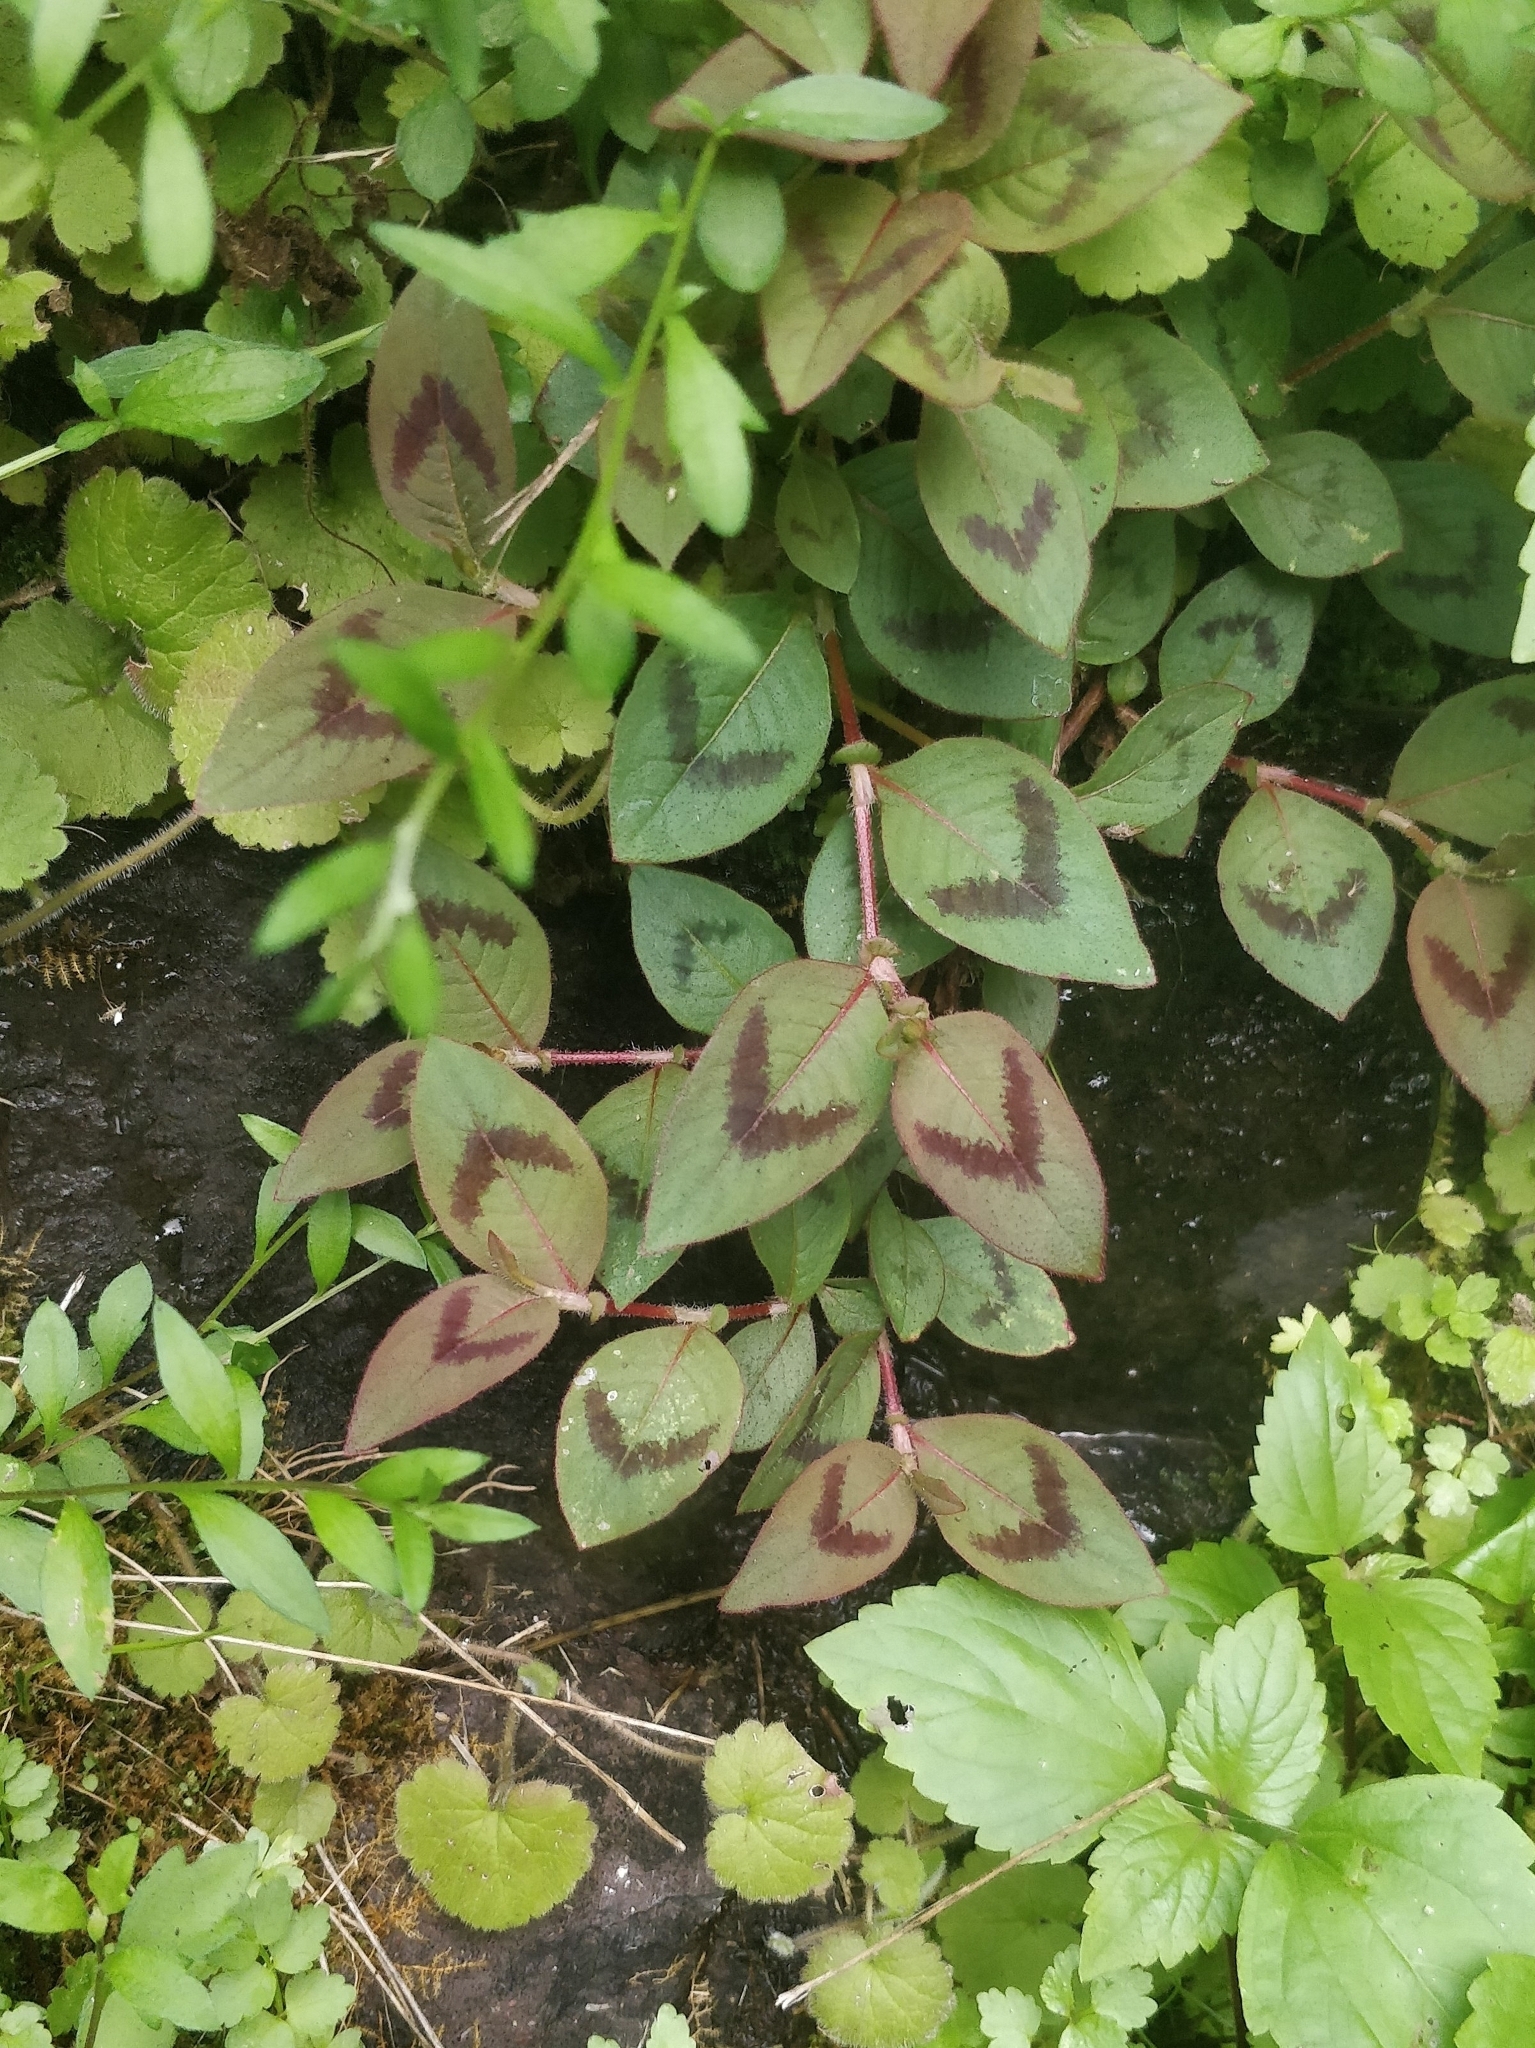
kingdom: Plantae
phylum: Tracheophyta
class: Magnoliopsida
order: Caryophyllales
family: Polygonaceae
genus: Persicaria
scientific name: Persicaria capitata
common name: Pinkhead smartweed
